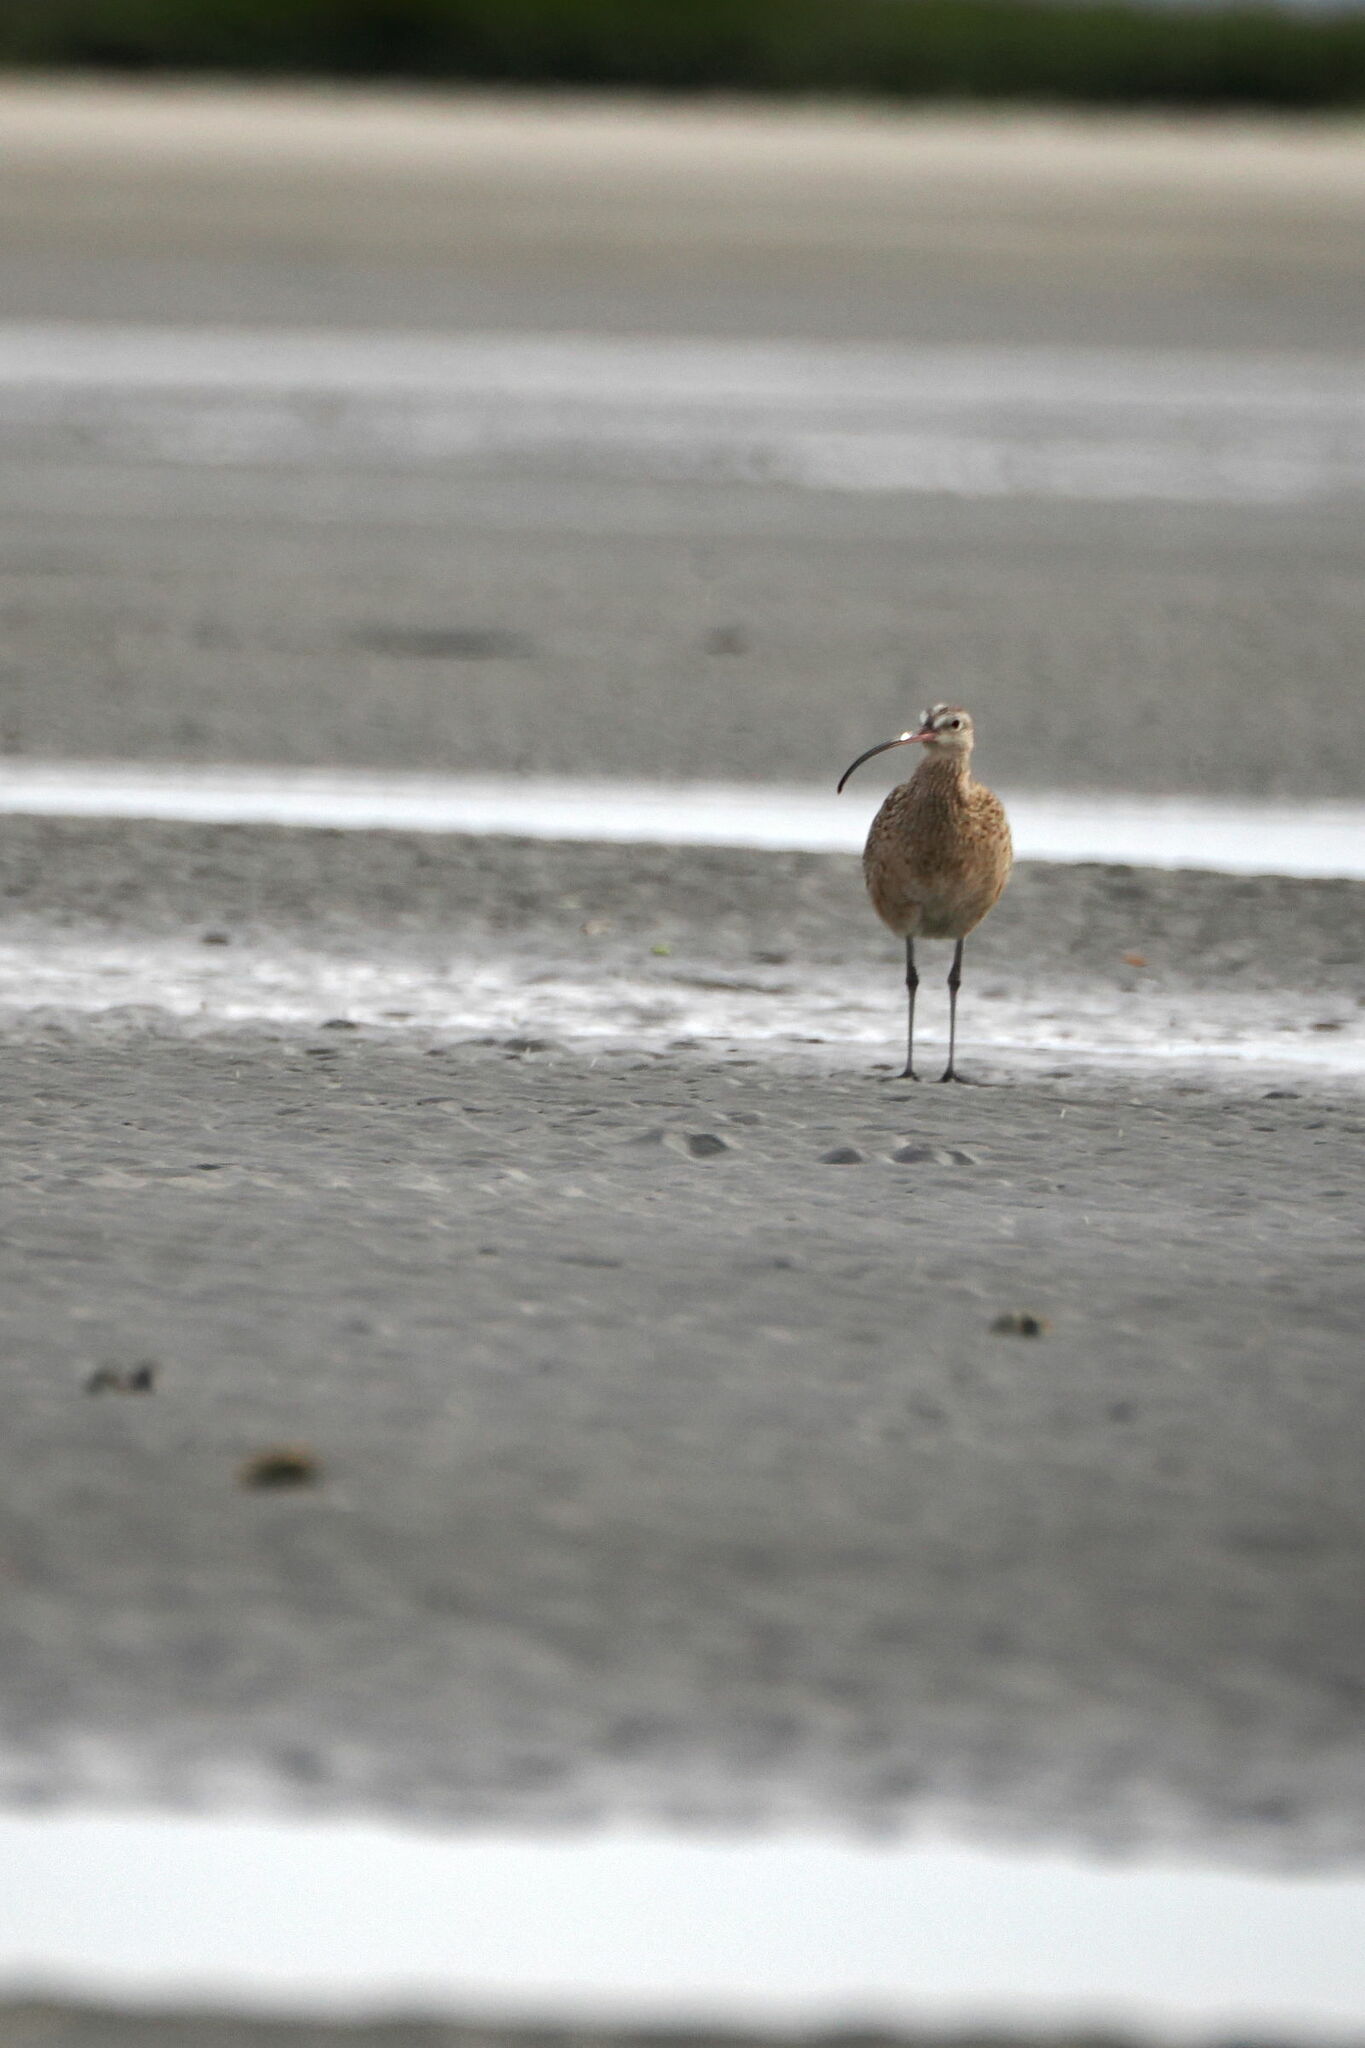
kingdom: Animalia
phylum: Chordata
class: Aves
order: Charadriiformes
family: Scolopacidae
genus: Numenius
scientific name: Numenius americanus
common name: Long-billed curlew
